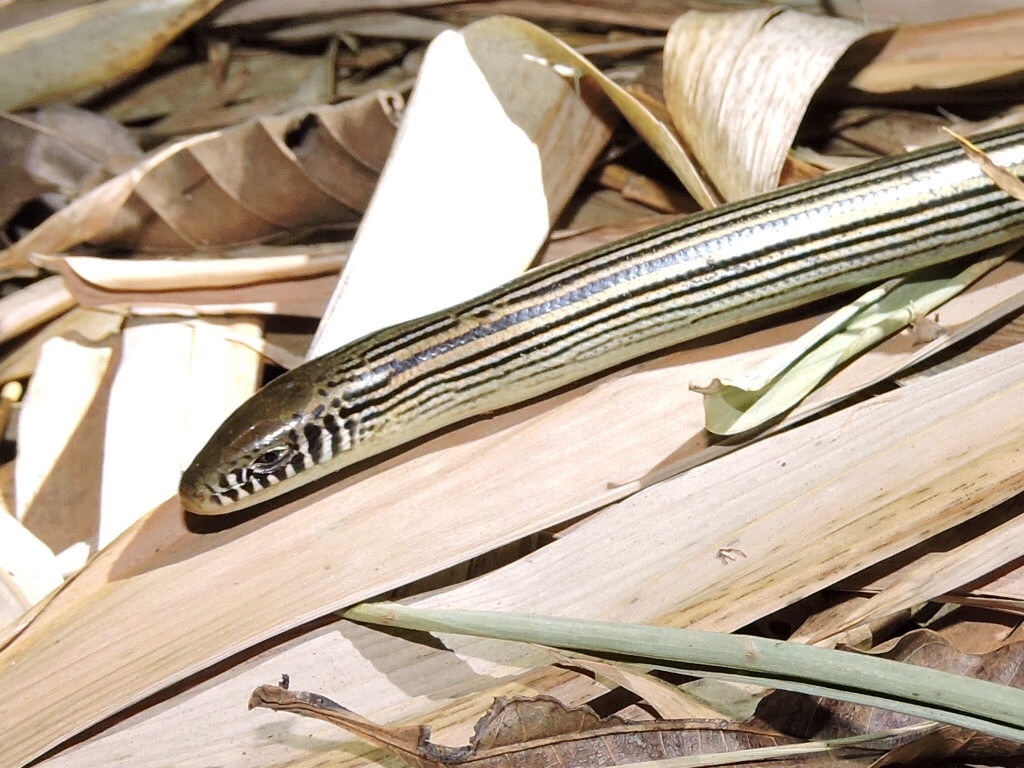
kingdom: Animalia
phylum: Chordata
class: Squamata
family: Diploglossidae
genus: Ophiodes
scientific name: Ophiodes striatus
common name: Striped worm lizard
